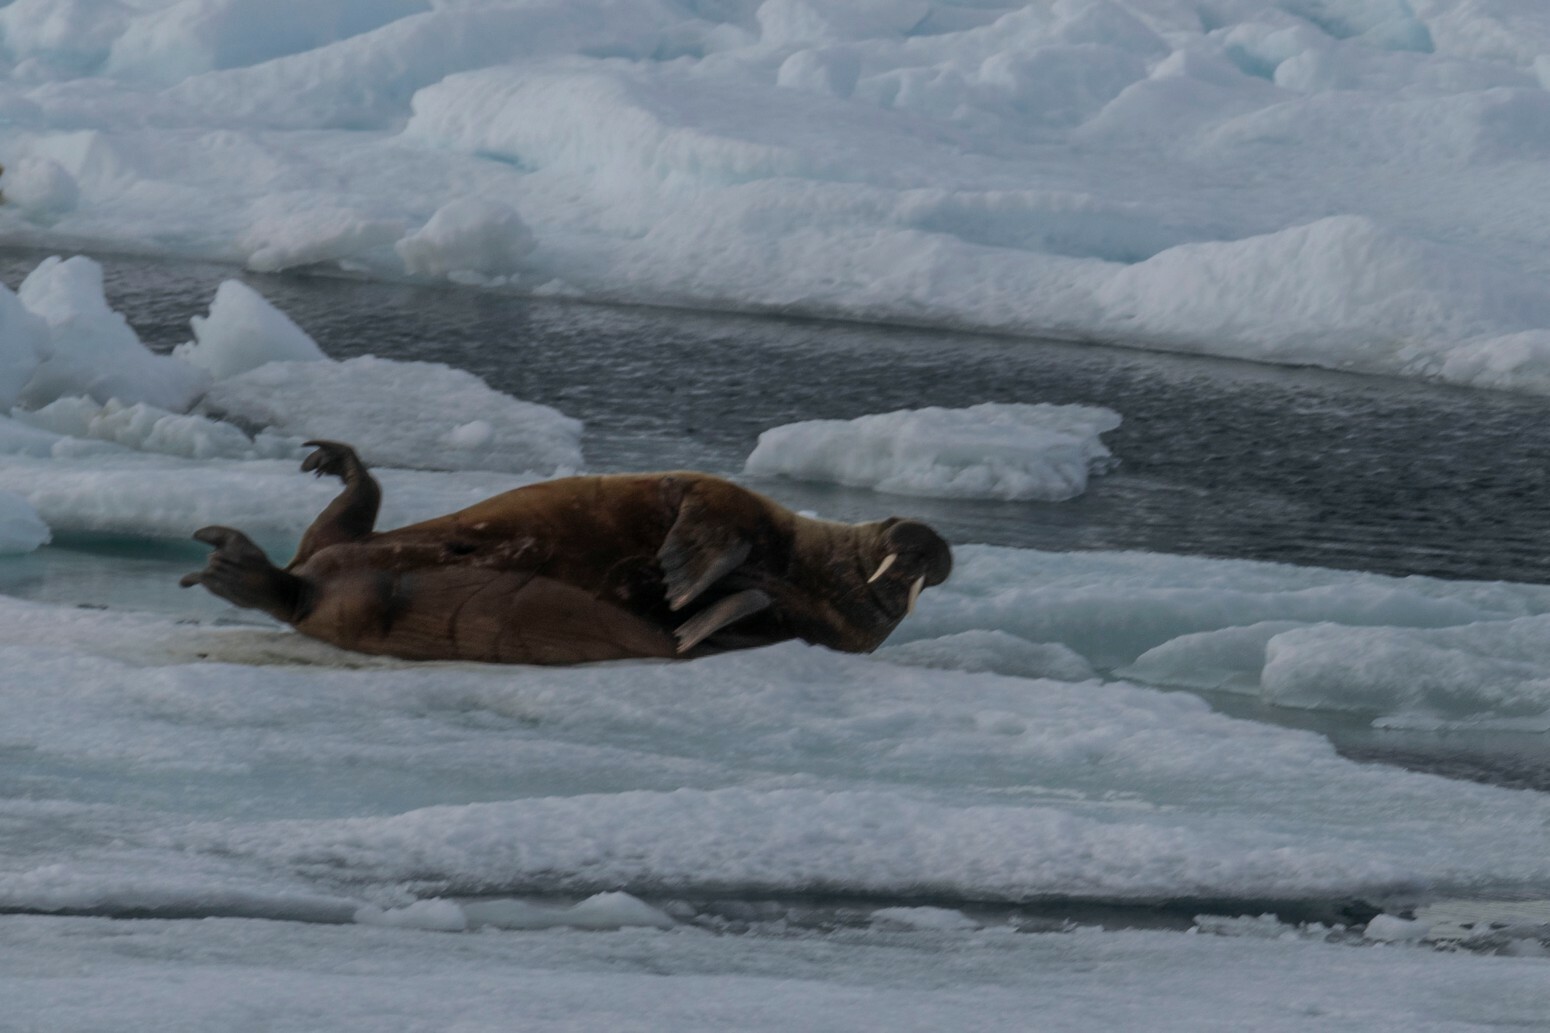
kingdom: Animalia
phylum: Chordata
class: Mammalia
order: Carnivora
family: Odobenidae
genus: Odobenus
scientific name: Odobenus rosmarus
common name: Walrus
